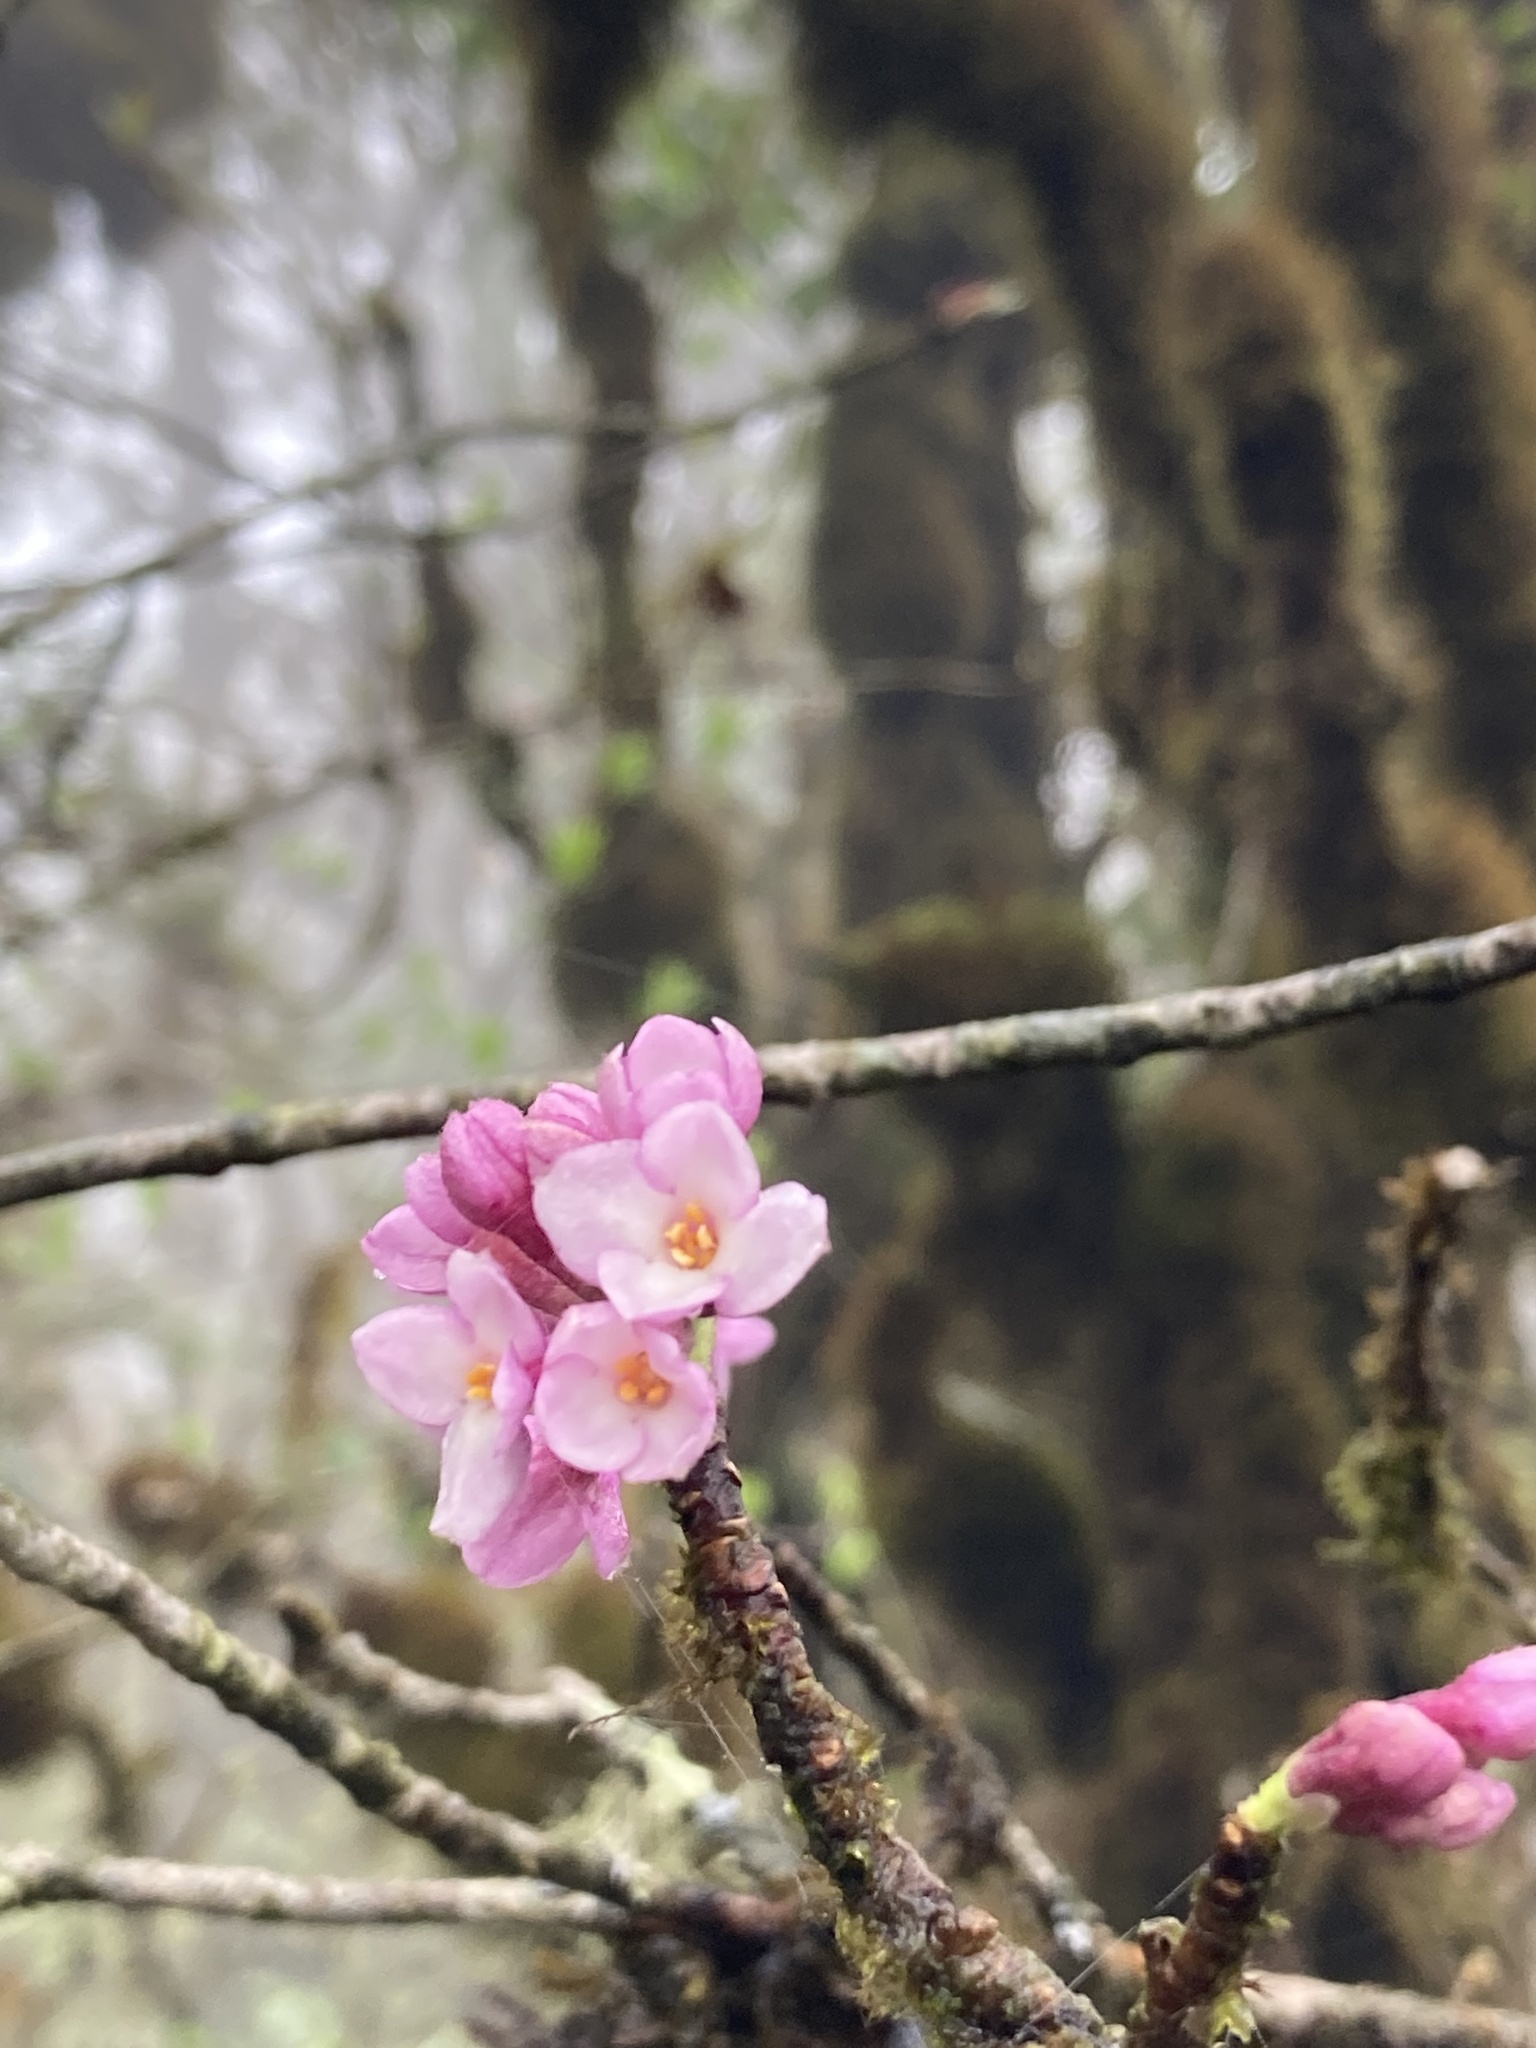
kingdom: Plantae
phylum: Tracheophyta
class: Magnoliopsida
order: Malvales
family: Thymelaeaceae
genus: Daphne
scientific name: Daphne bholua
